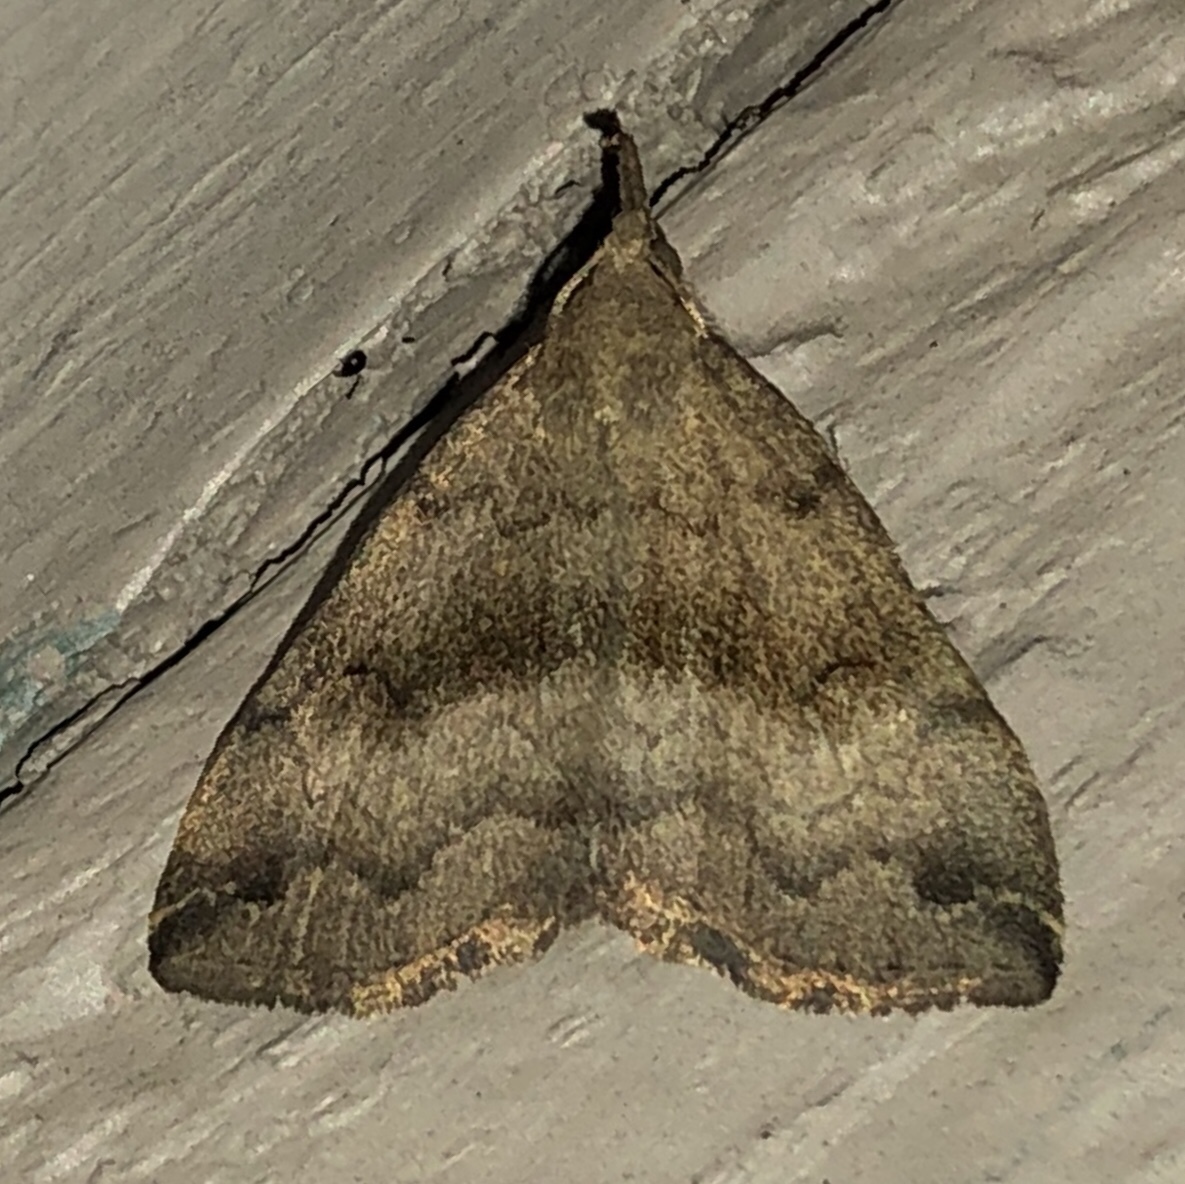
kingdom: Animalia
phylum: Arthropoda
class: Insecta
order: Lepidoptera
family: Erebidae
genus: Phalaenostola
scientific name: Phalaenostola eumelusalis
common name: Dark phalaenostola moth
